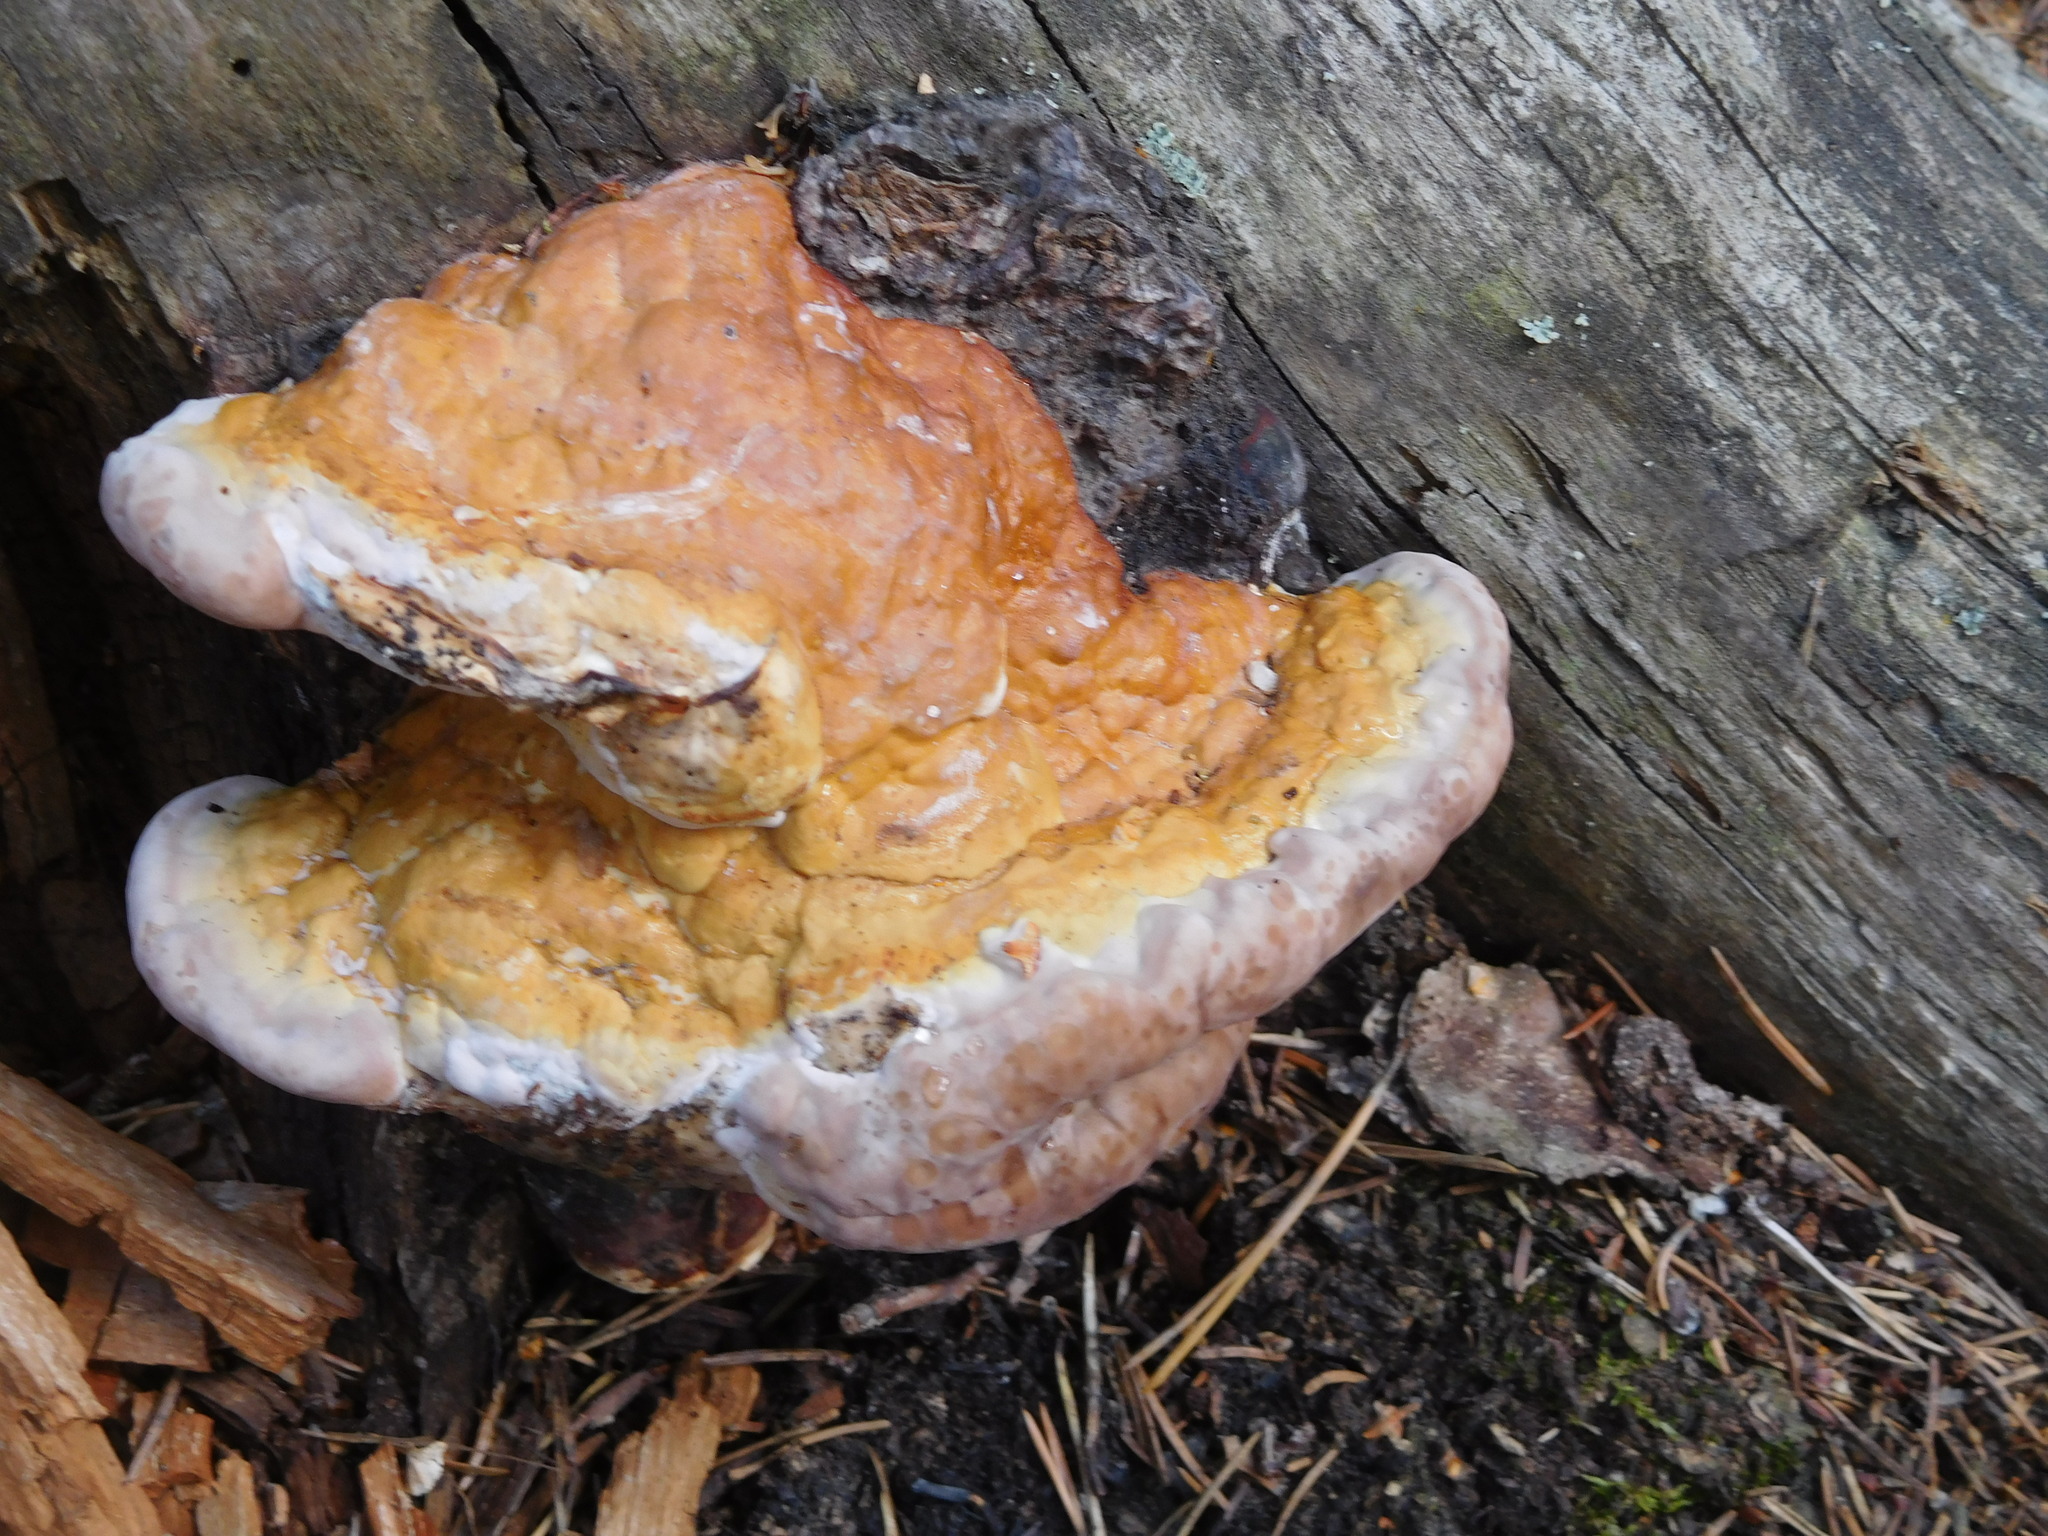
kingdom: Fungi
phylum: Basidiomycota
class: Agaricomycetes
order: Polyporales
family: Fomitopsidaceae
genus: Fomitopsis
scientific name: Fomitopsis pinicola
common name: Red-belted bracket
